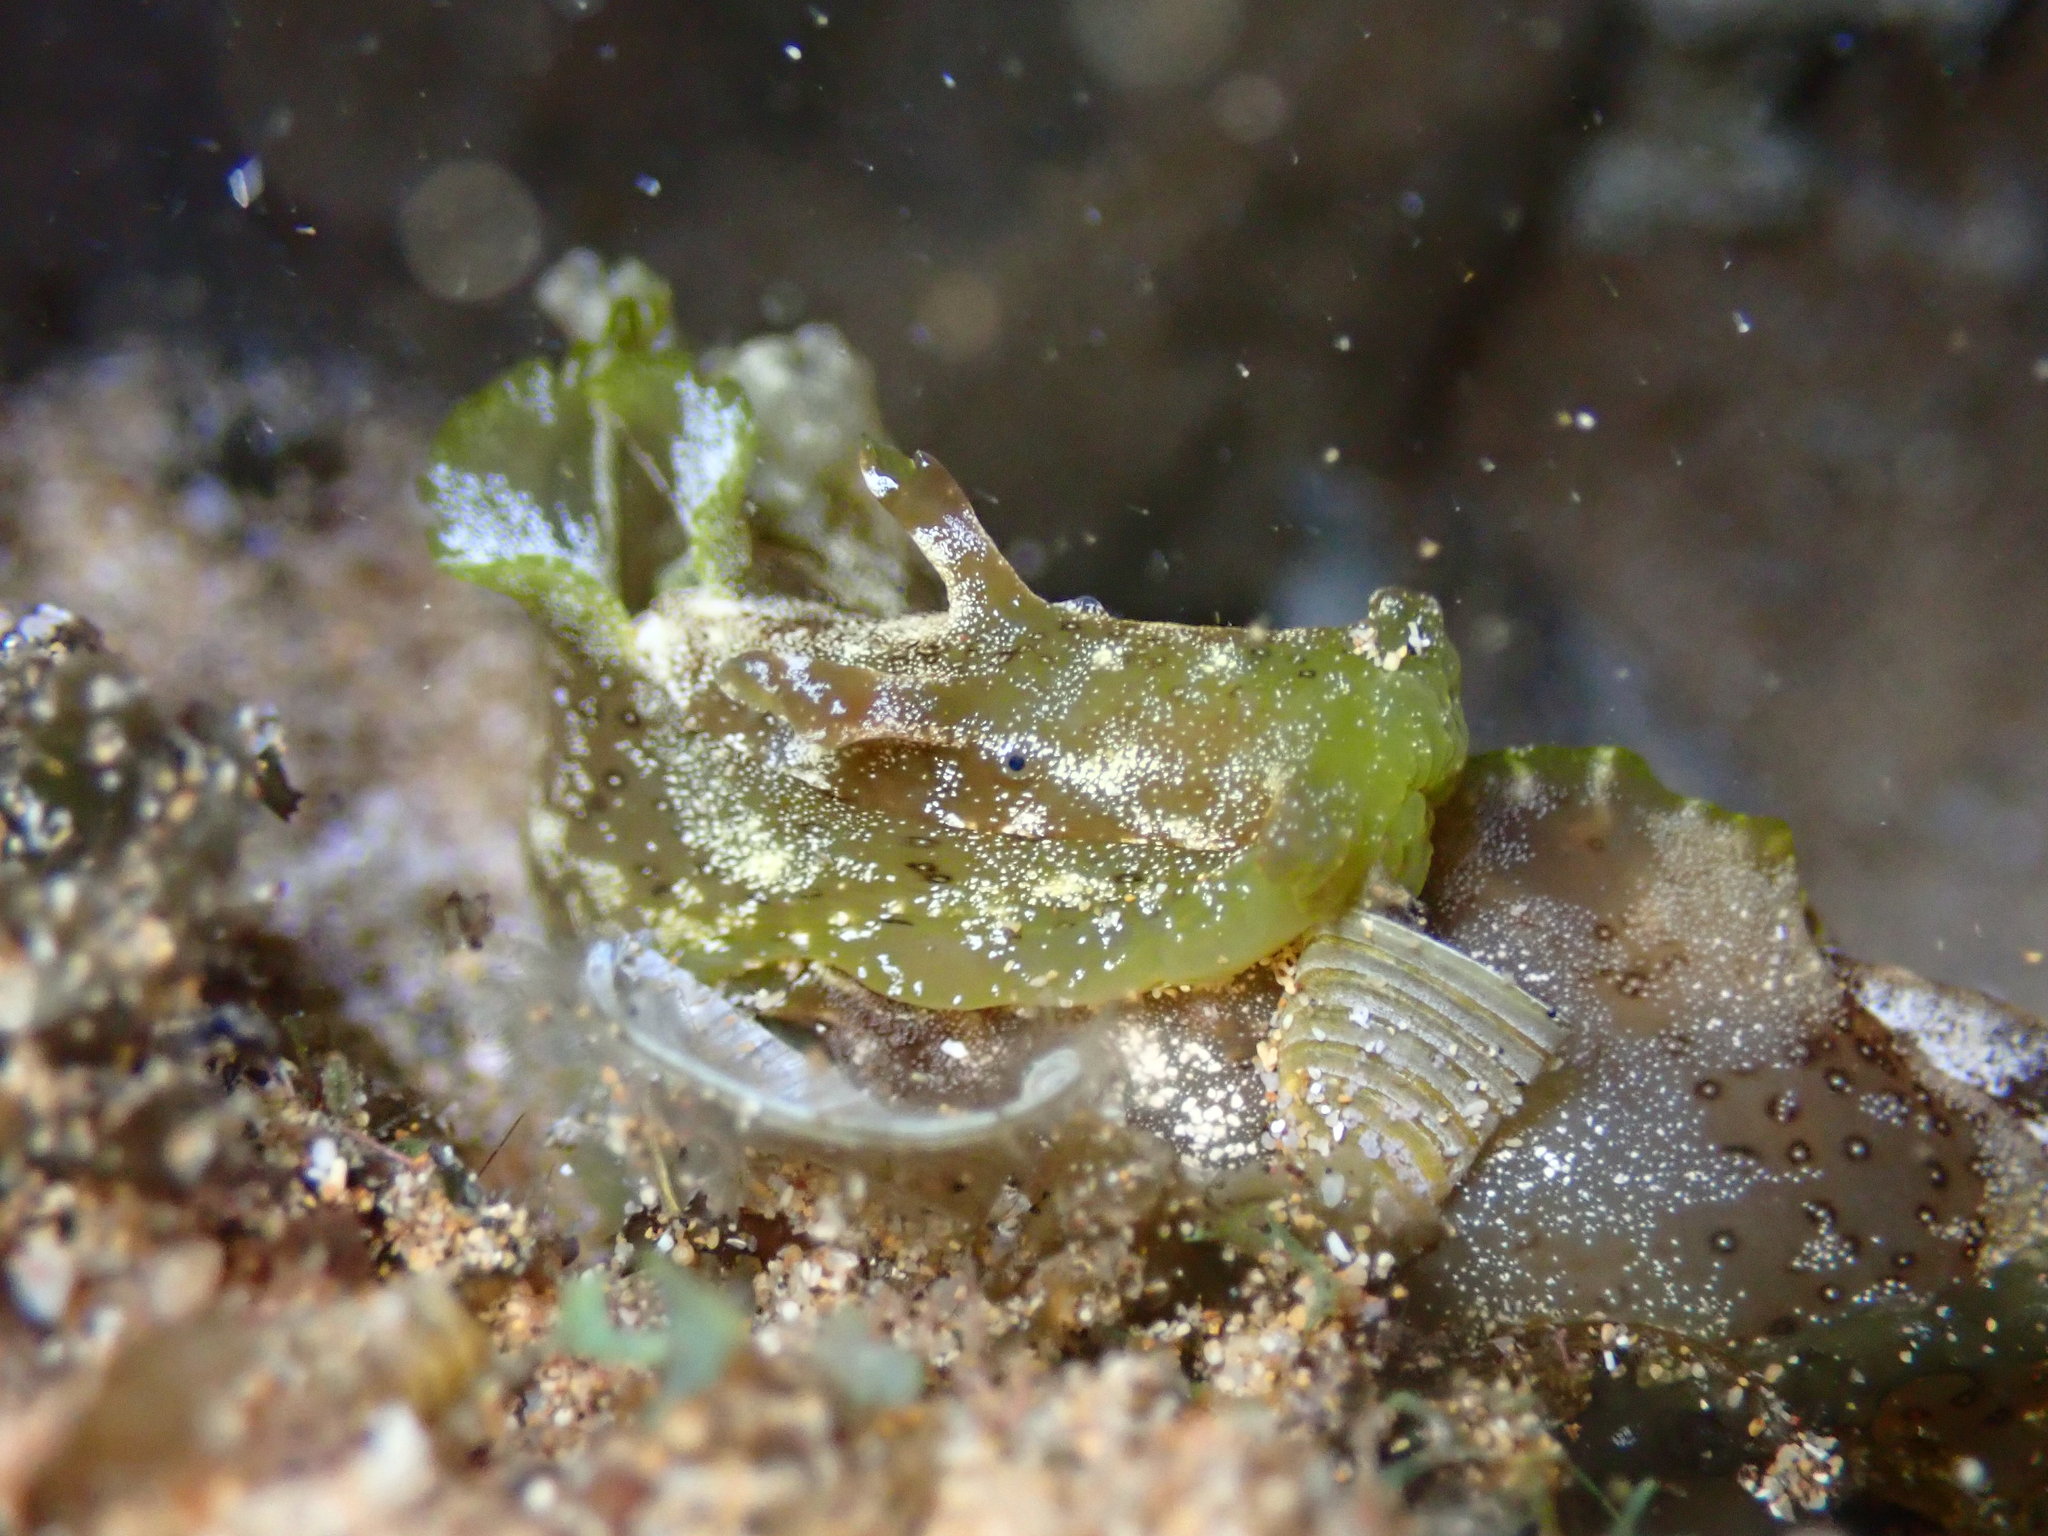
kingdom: Animalia
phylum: Mollusca
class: Gastropoda
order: Aplysiida
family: Aplysiidae
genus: Aplysia
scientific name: Aplysia oculifera
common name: Spotted sea hare
